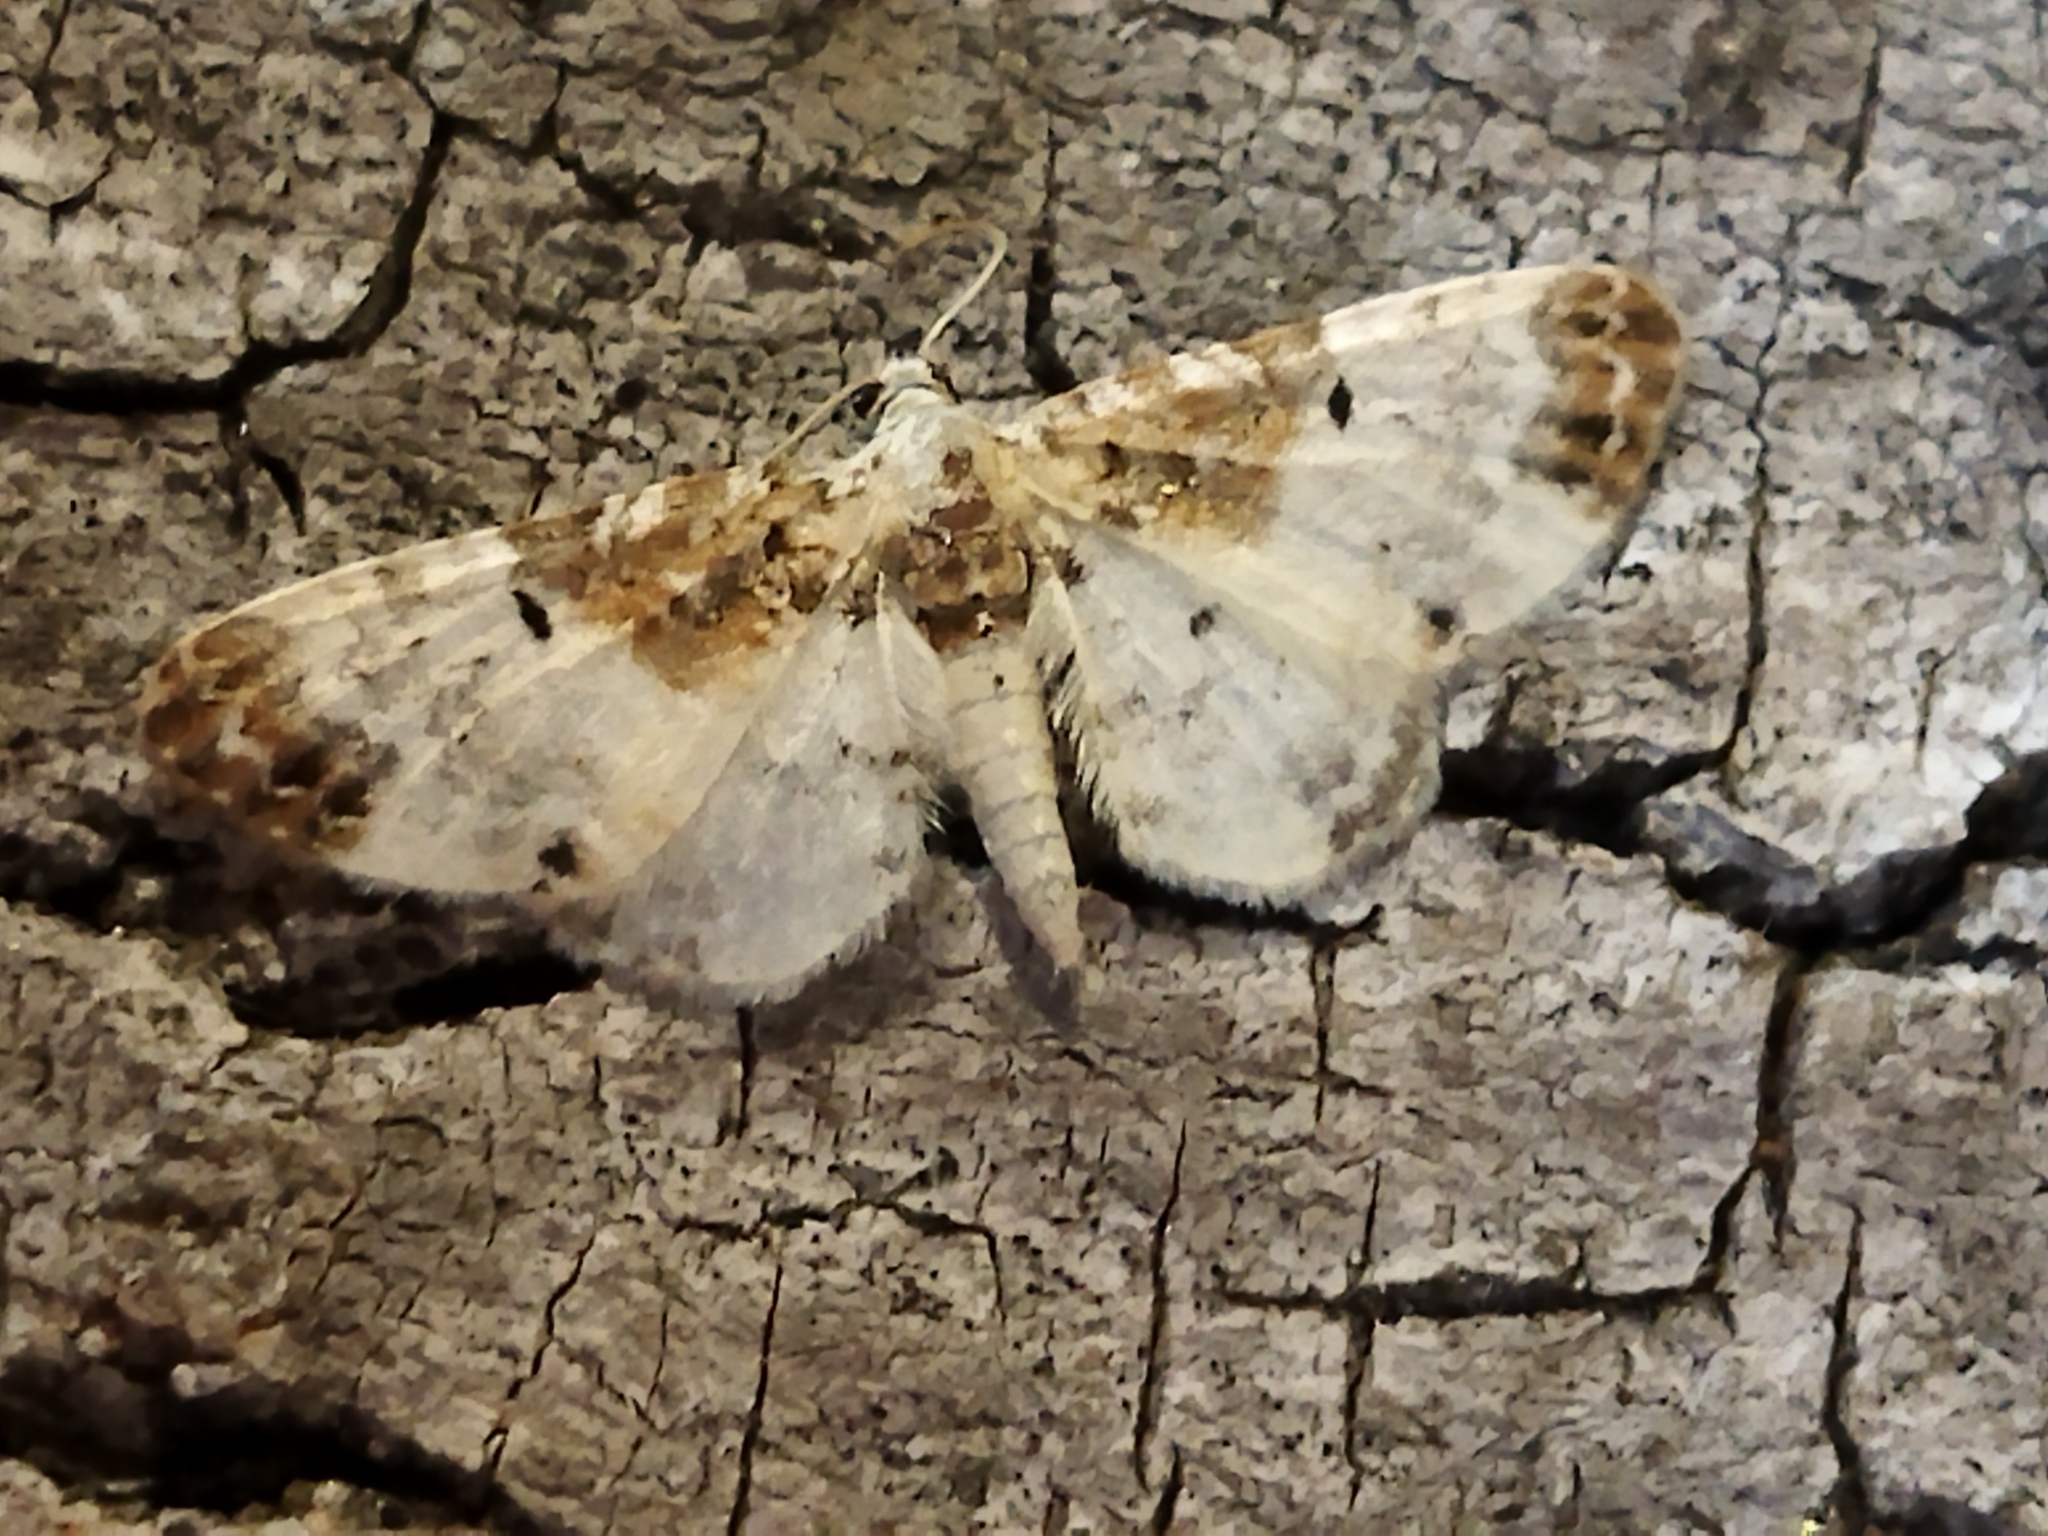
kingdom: Animalia
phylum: Arthropoda
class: Insecta
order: Lepidoptera
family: Geometridae
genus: Eupithecia
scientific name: Eupithecia breviculata
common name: Rusty-shouldered pug
